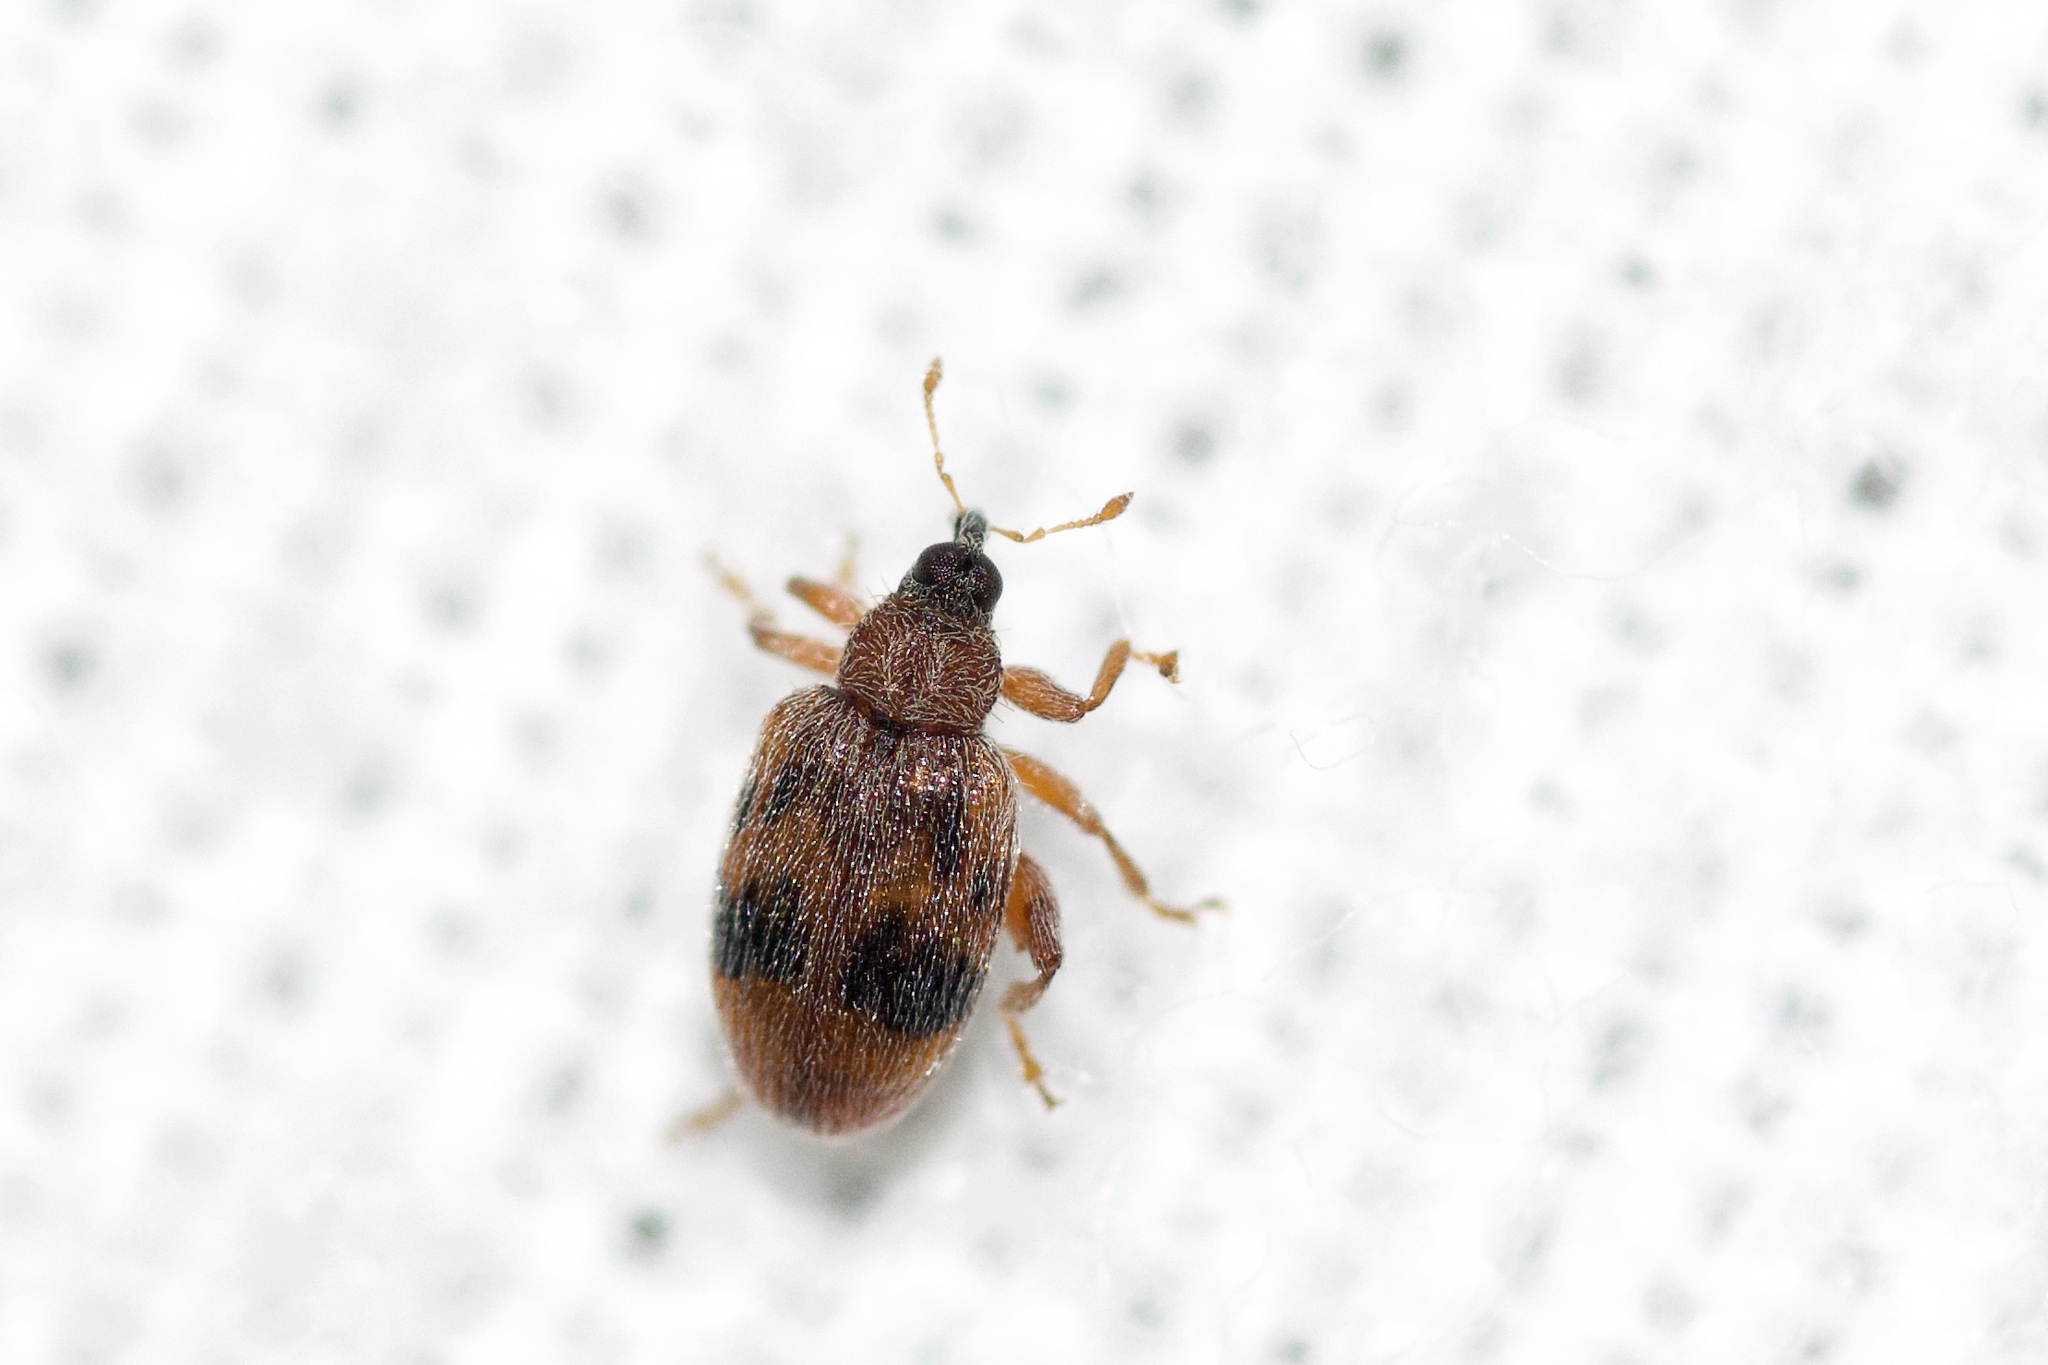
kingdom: Animalia
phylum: Arthropoda
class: Insecta
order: Coleoptera
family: Curculionidae
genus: Orchestes
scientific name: Orchestes steppensis
